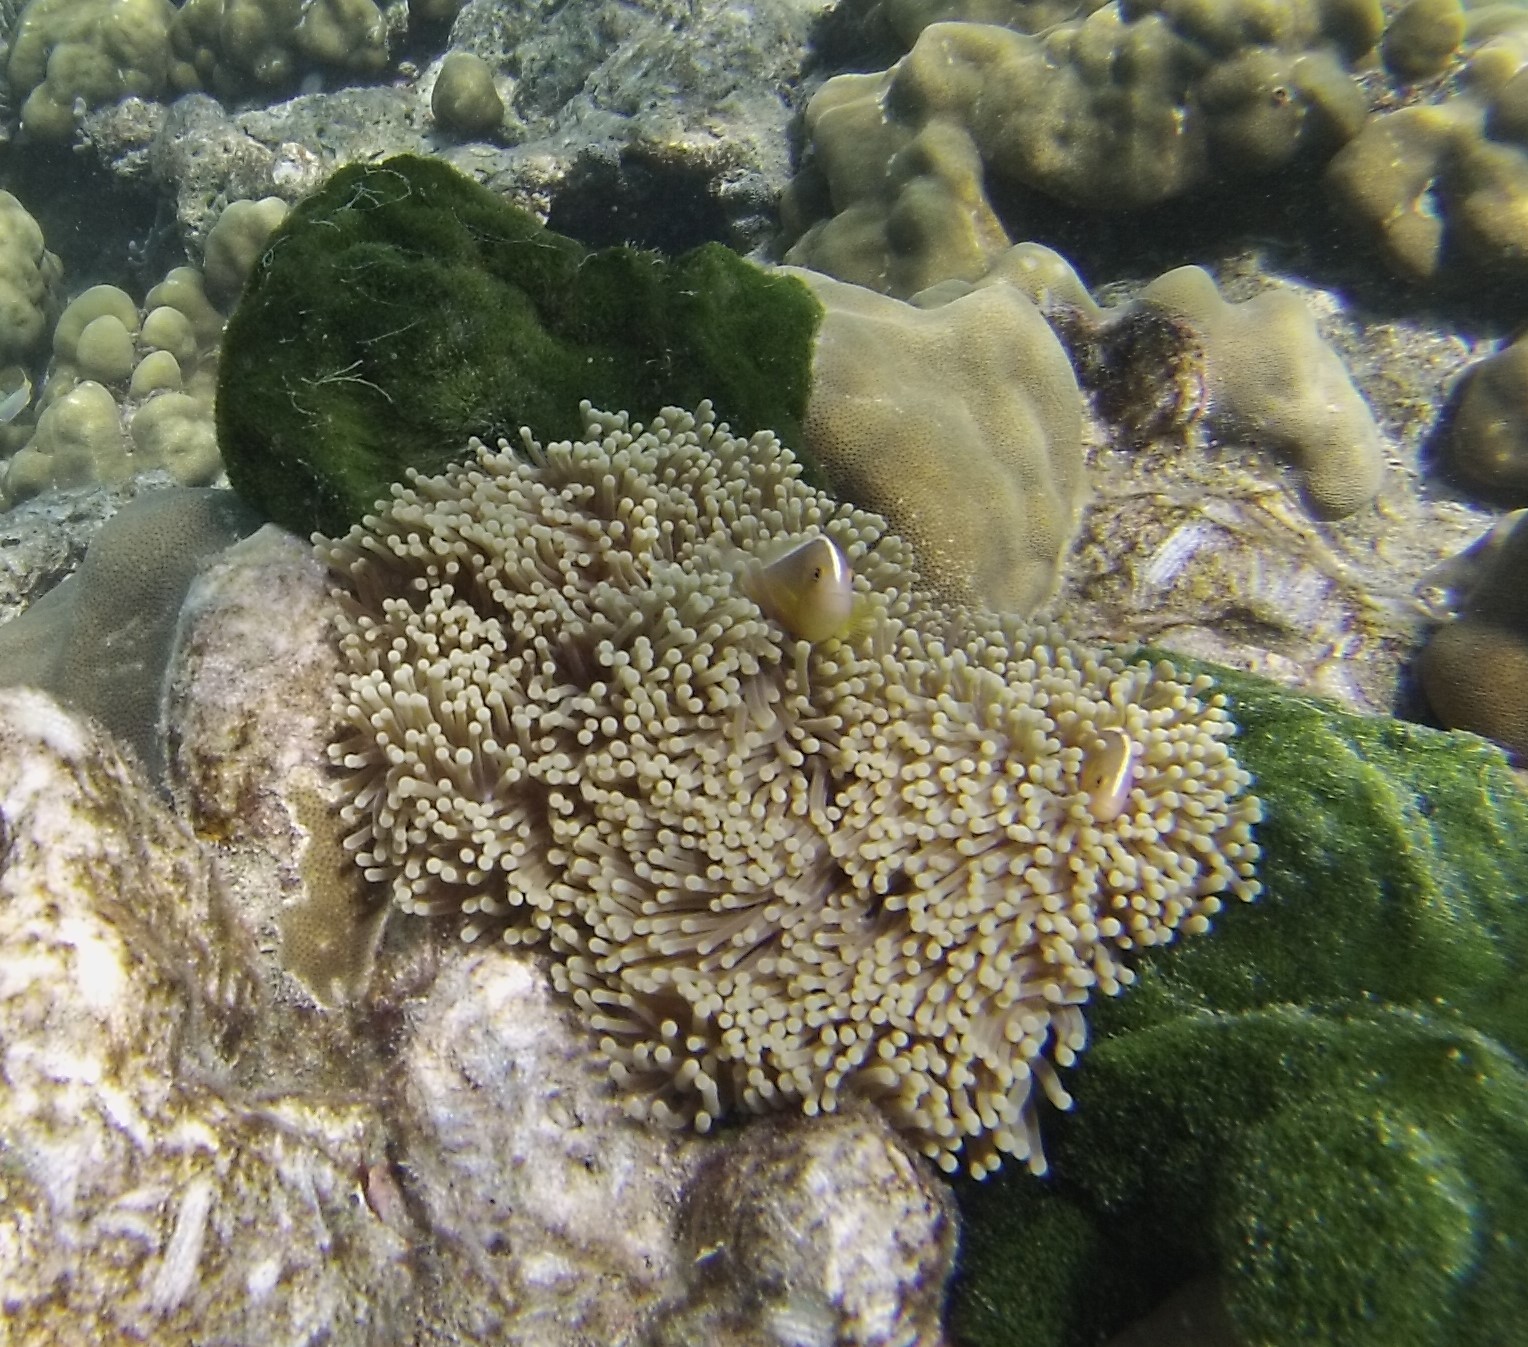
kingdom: Animalia
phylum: Chordata
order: Perciformes
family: Pomacentridae
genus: Amphiprion
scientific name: Amphiprion akallopisos
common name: Skunk clownfish
